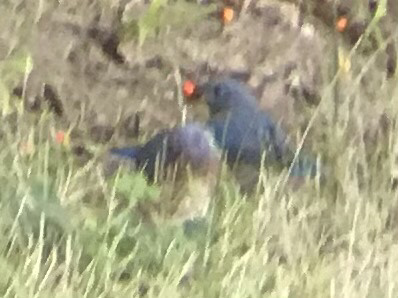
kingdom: Animalia
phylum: Chordata
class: Aves
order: Passeriformes
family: Turdidae
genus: Sialia
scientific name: Sialia sialis
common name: Eastern bluebird
